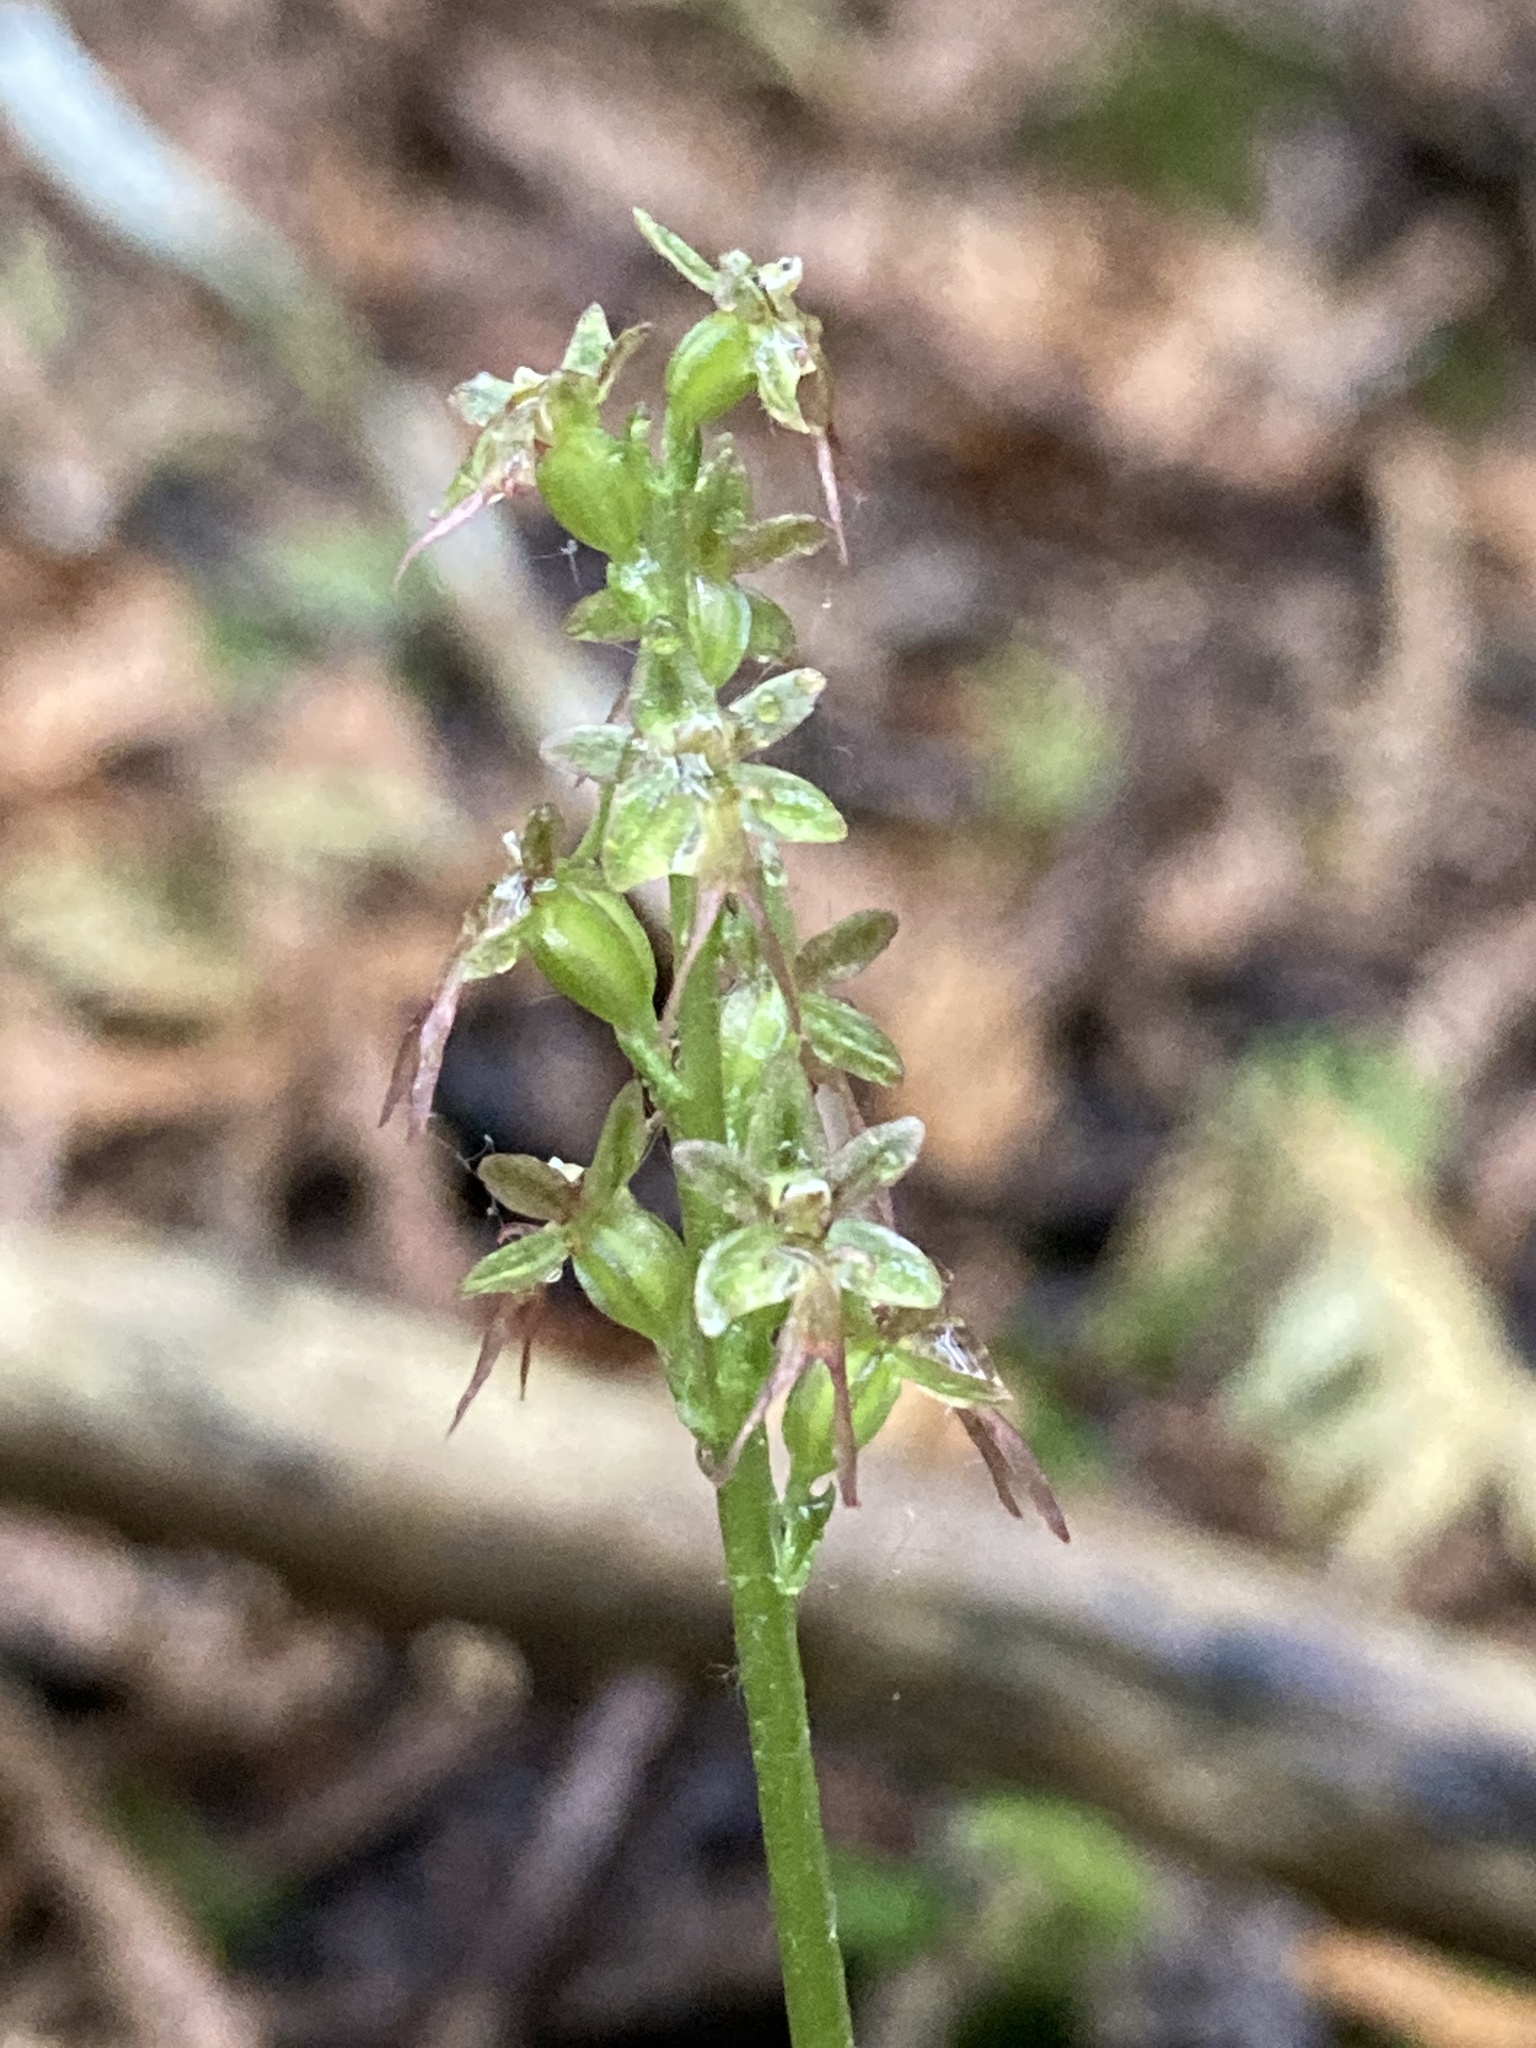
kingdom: Plantae
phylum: Tracheophyta
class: Liliopsida
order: Asparagales
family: Orchidaceae
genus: Neottia
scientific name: Neottia cordata
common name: Lesser twayblade
